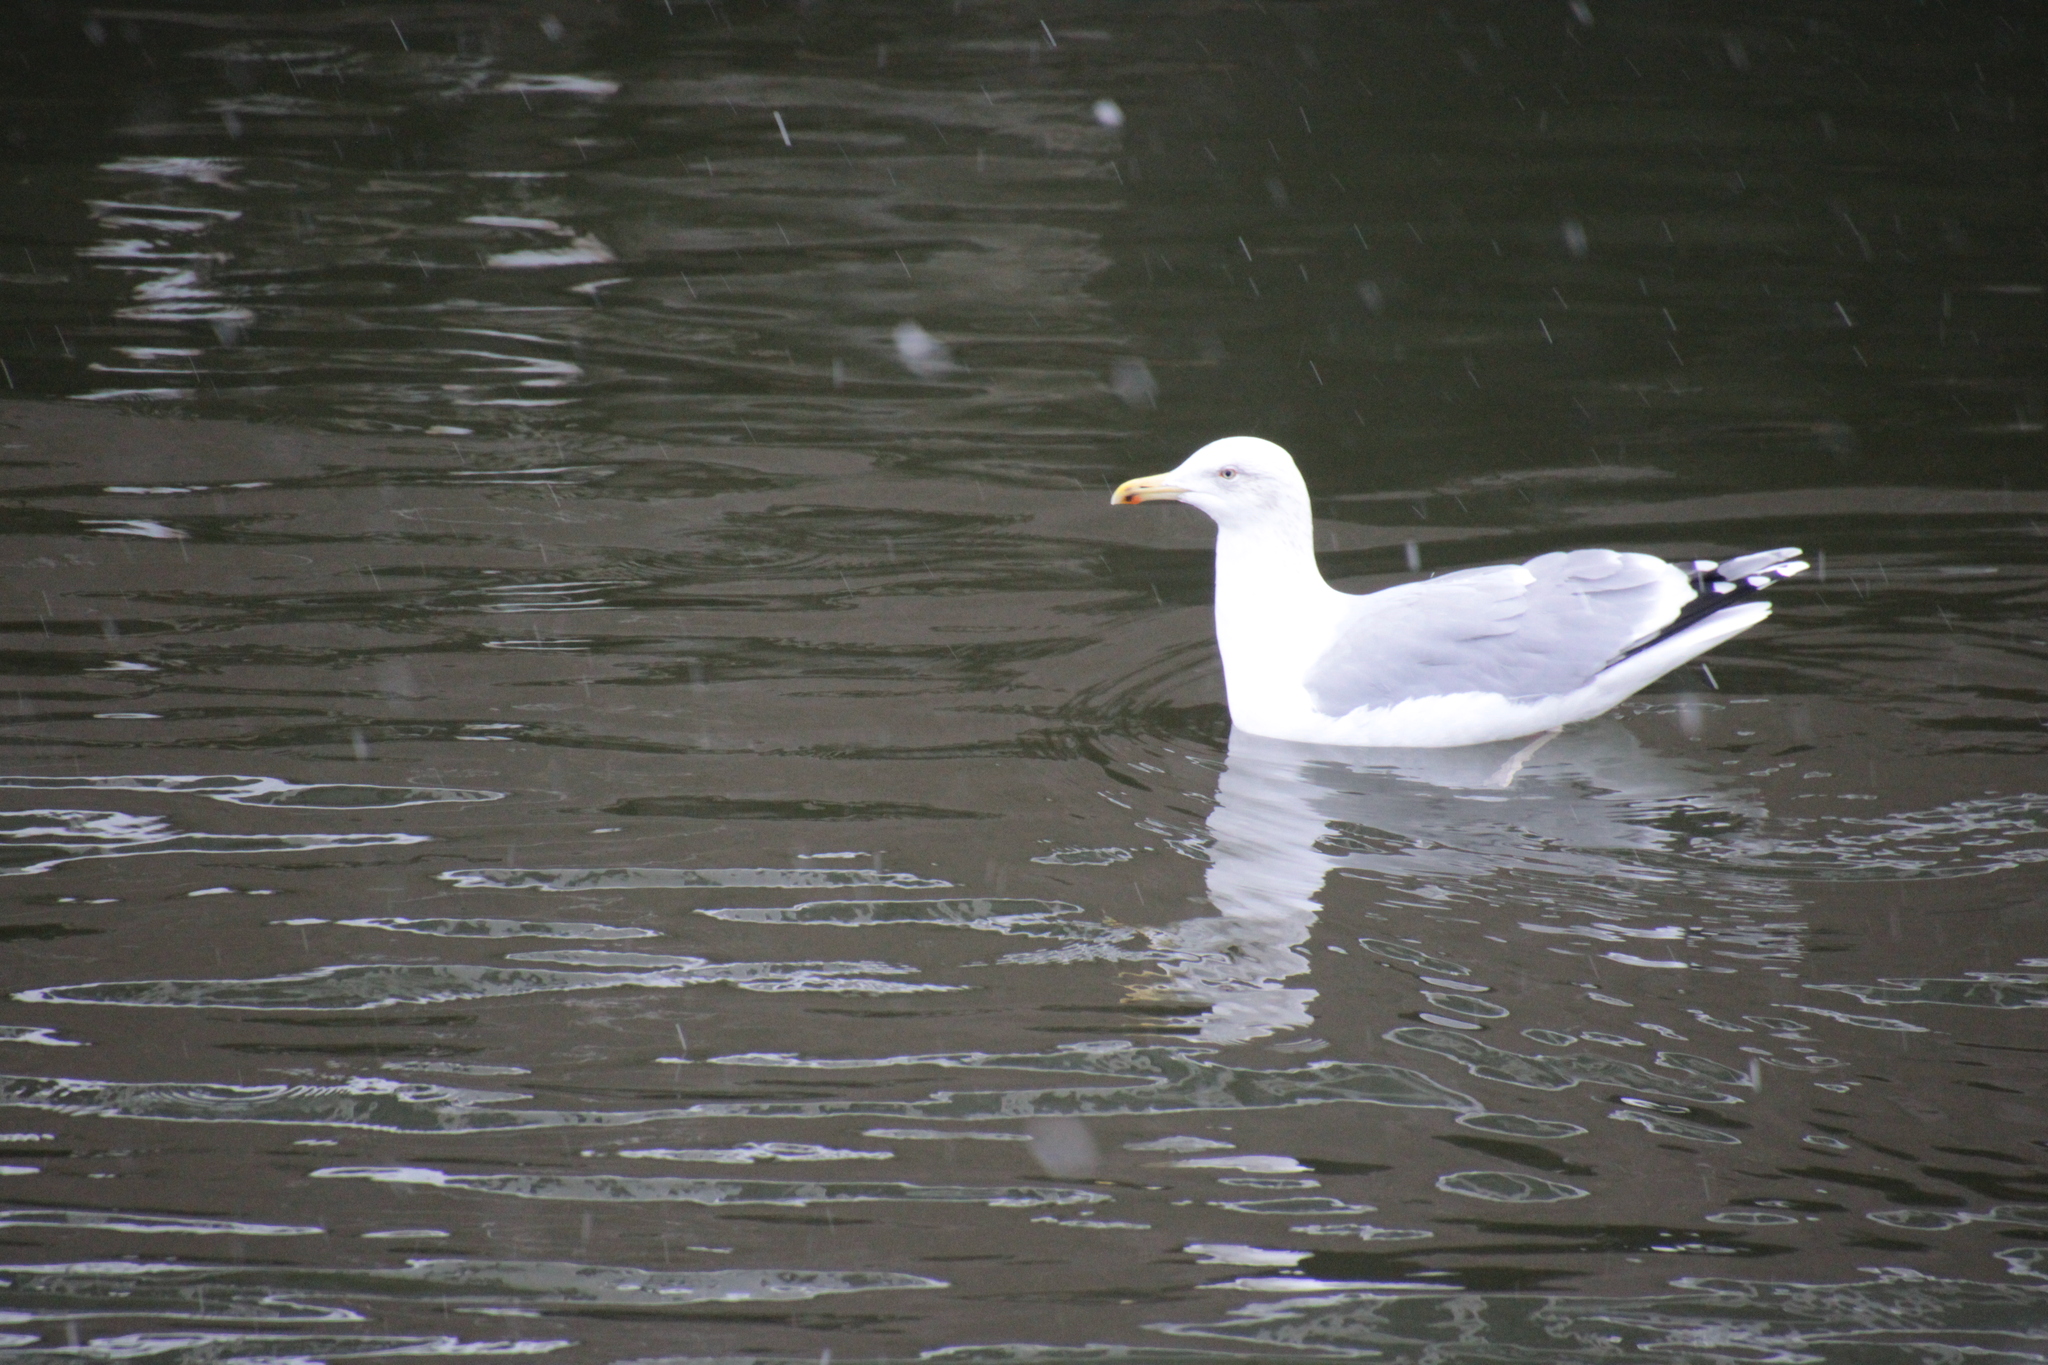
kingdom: Animalia
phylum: Chordata
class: Aves
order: Charadriiformes
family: Laridae
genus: Larus
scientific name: Larus argentatus
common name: Herring gull
